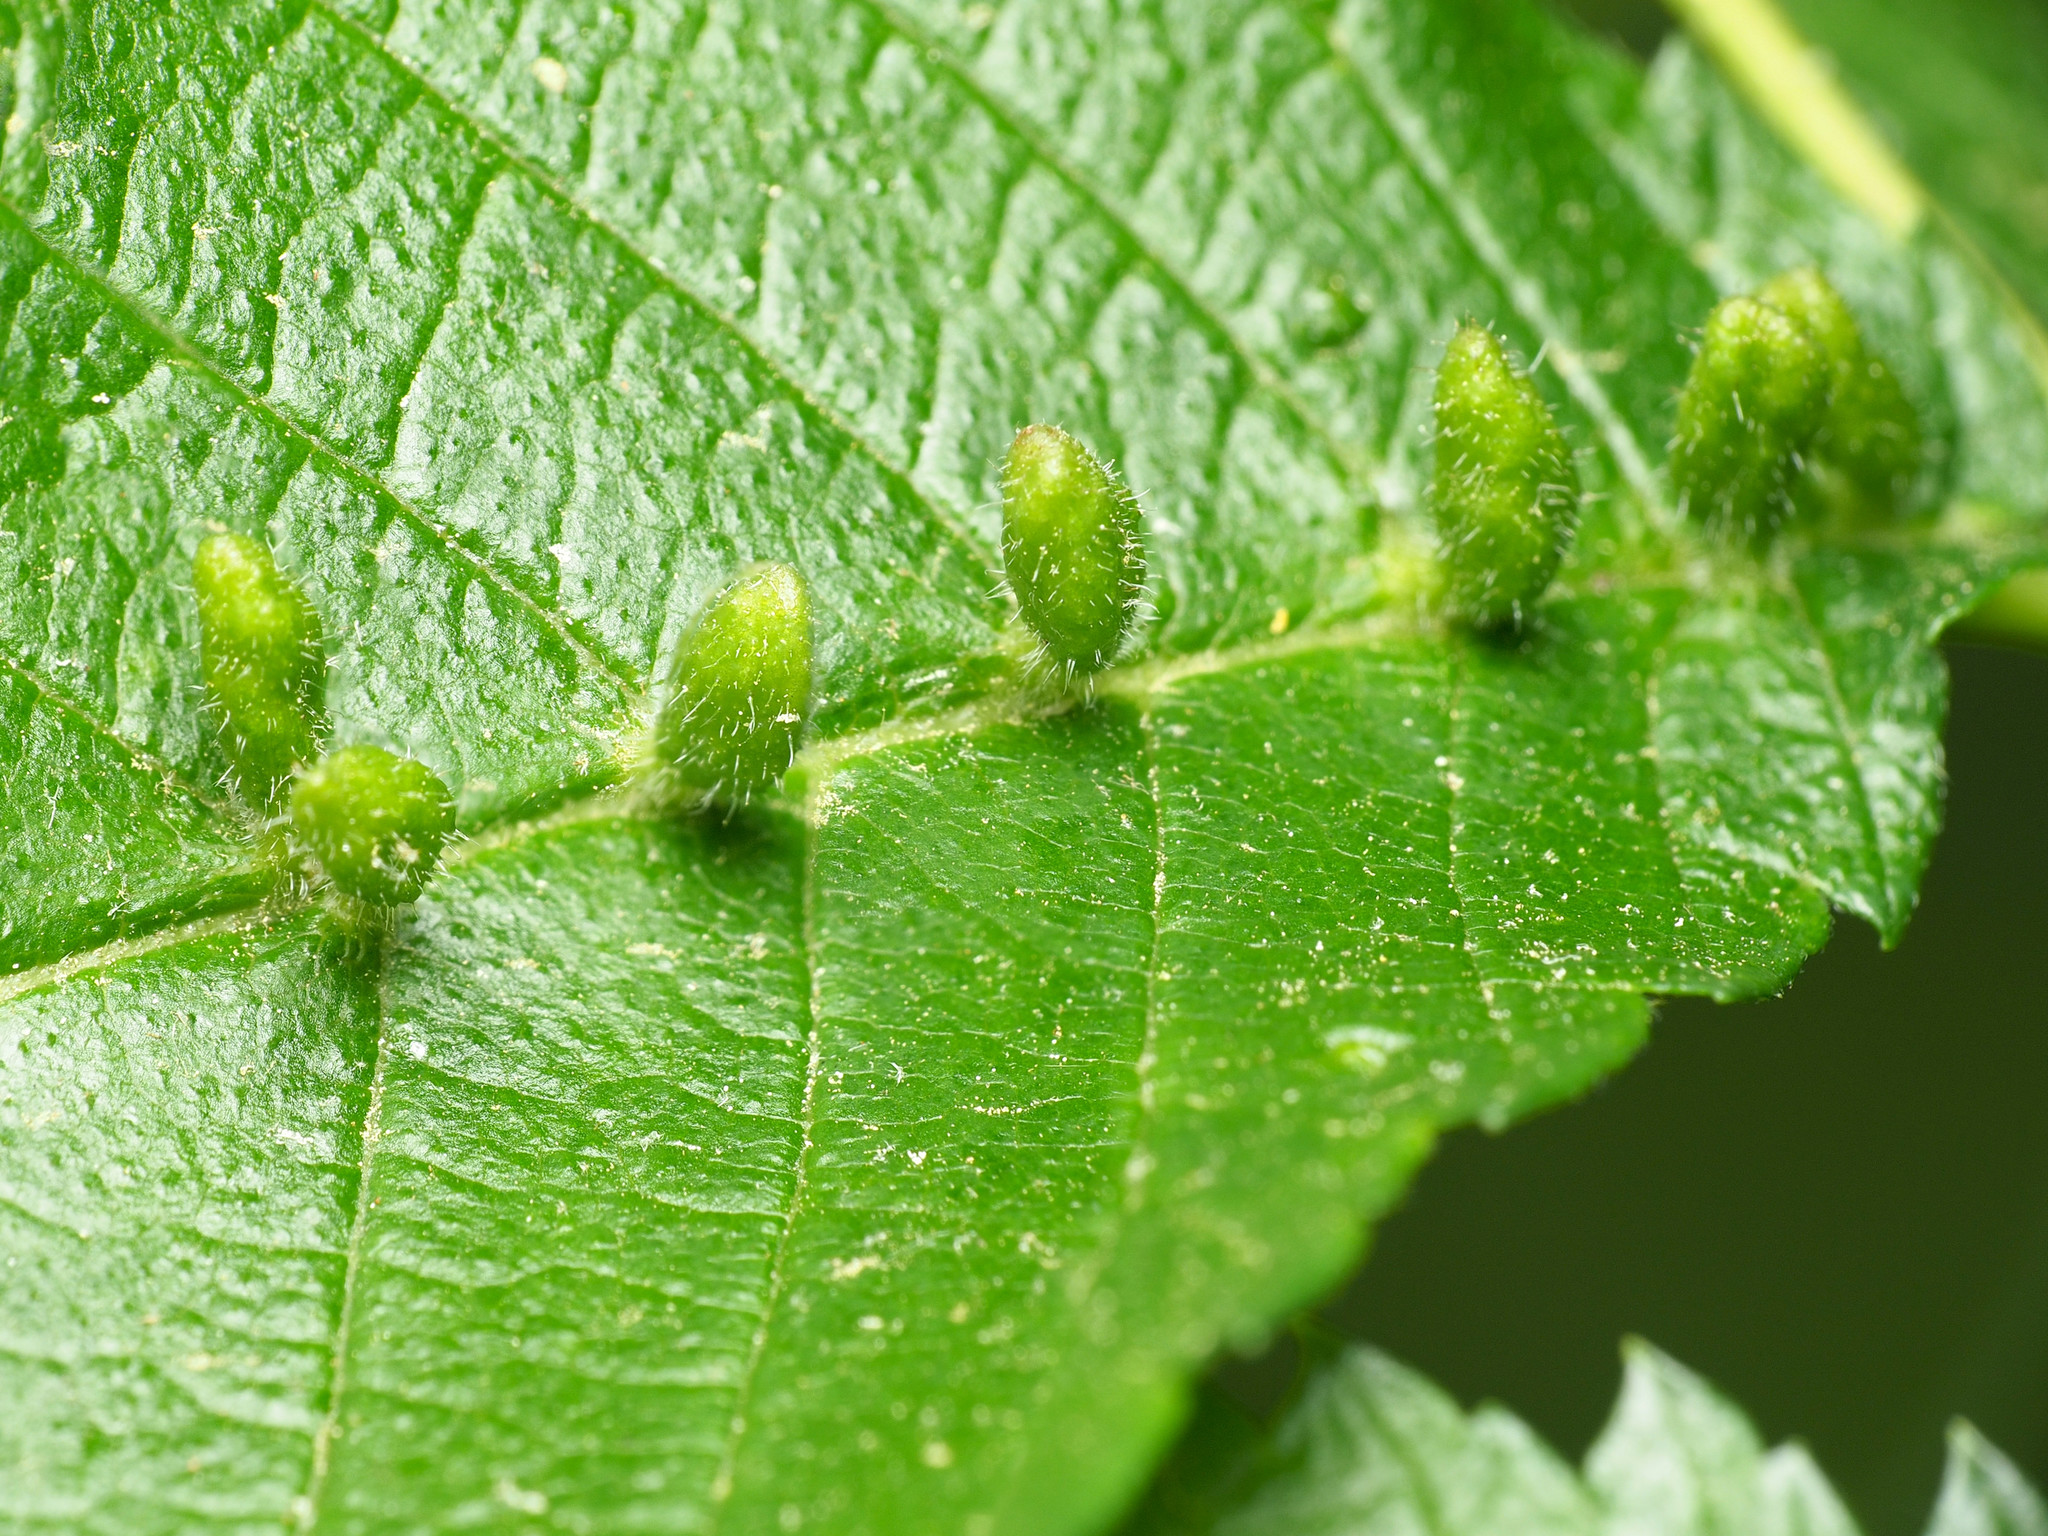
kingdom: Animalia
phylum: Arthropoda
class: Arachnida
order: Trombidiformes
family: Eriophyidae
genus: Aceria
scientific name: Aceria
